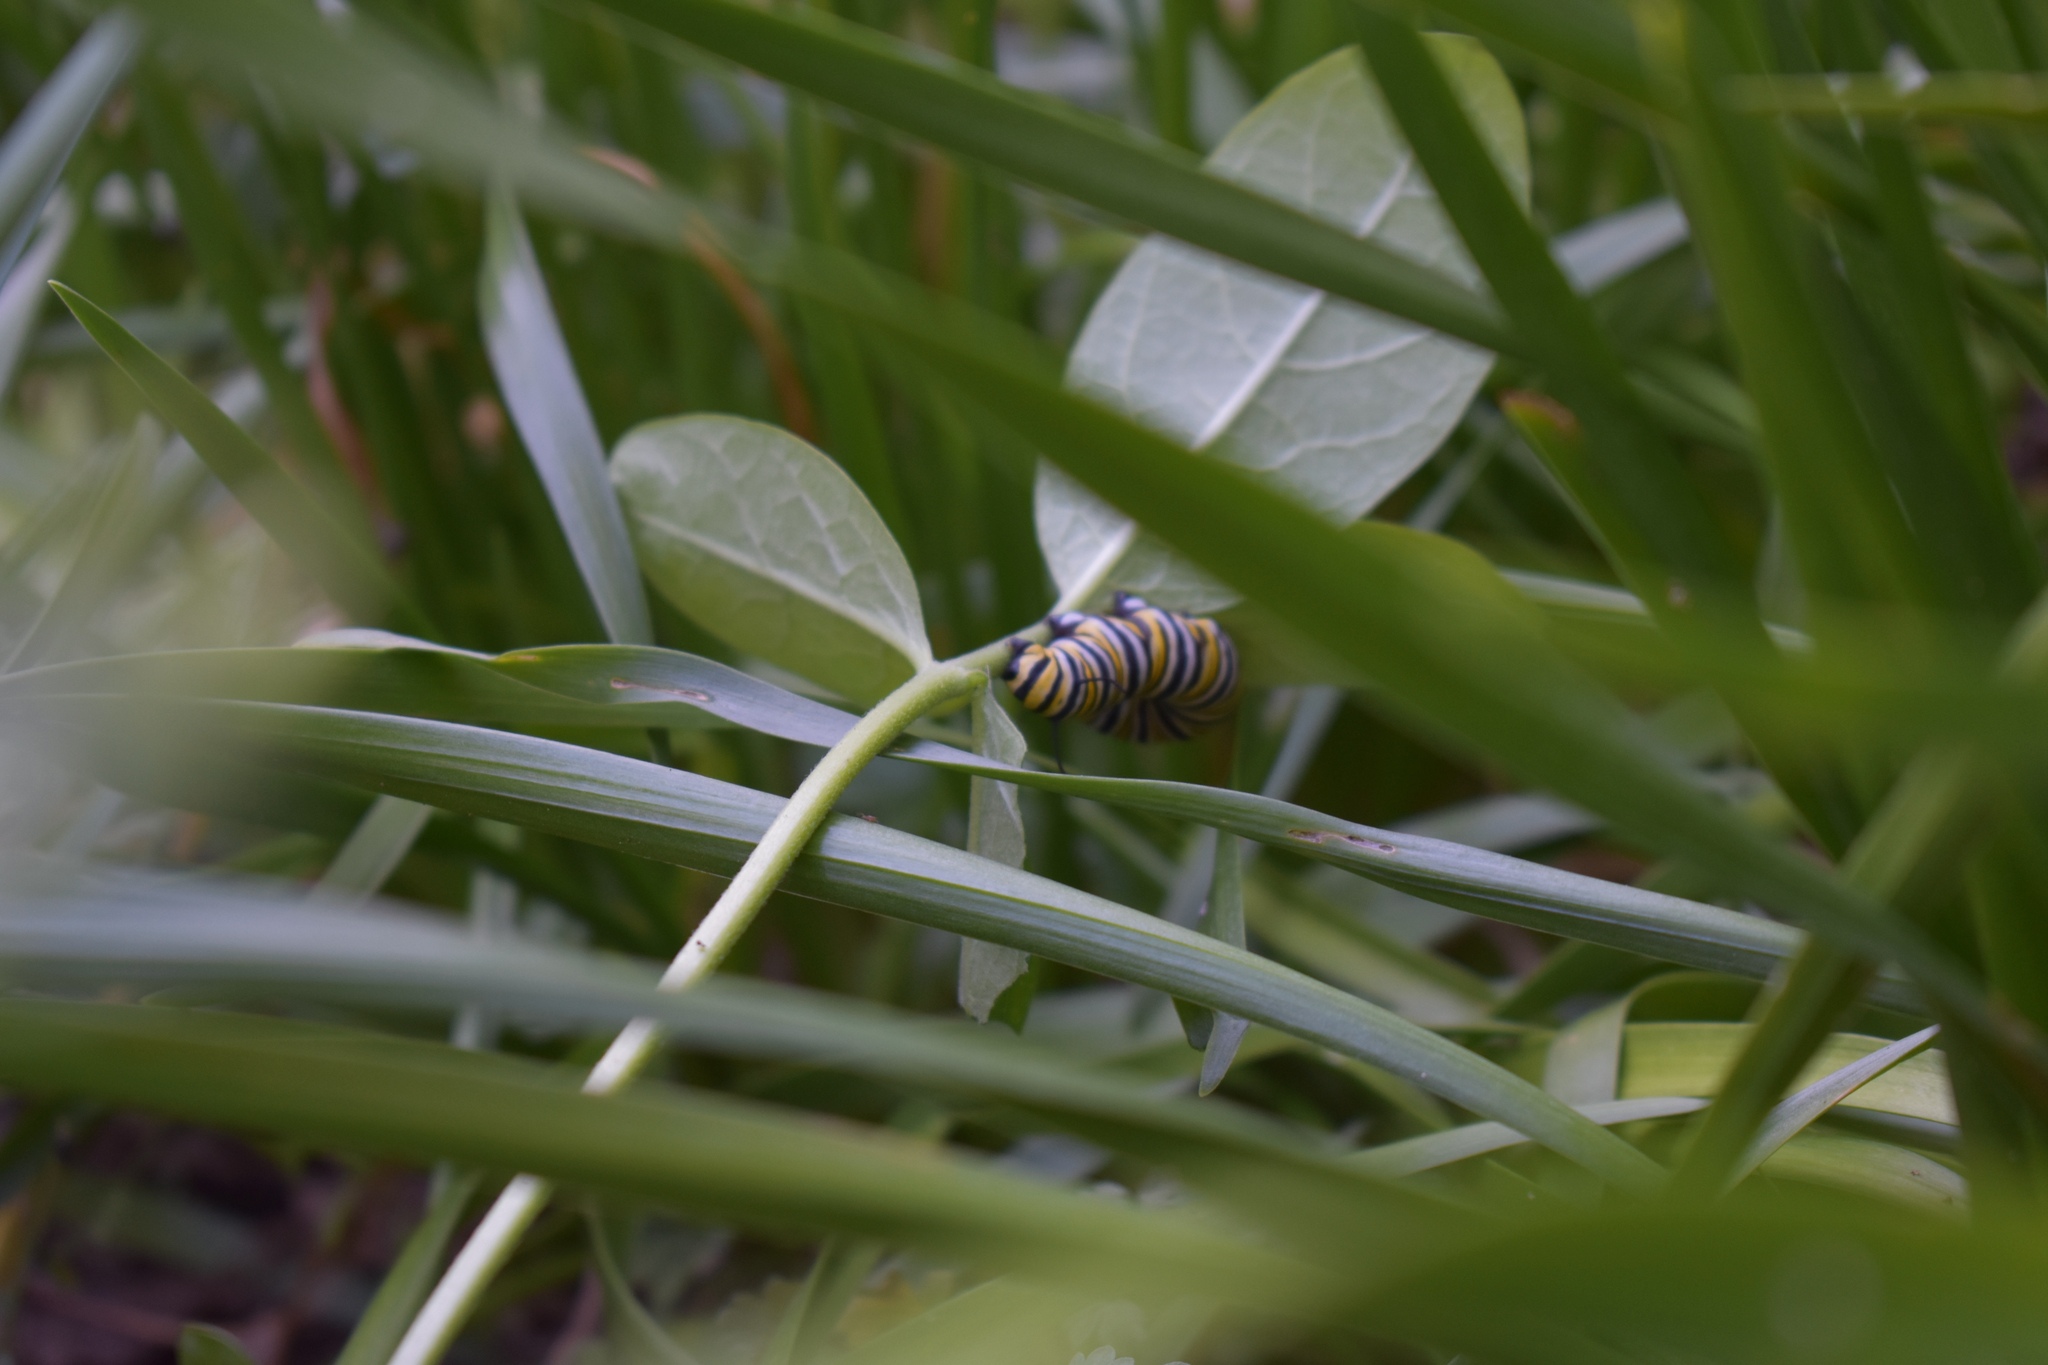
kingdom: Animalia
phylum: Arthropoda
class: Insecta
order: Lepidoptera
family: Nymphalidae
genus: Danaus
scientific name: Danaus plexippus
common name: Monarch
